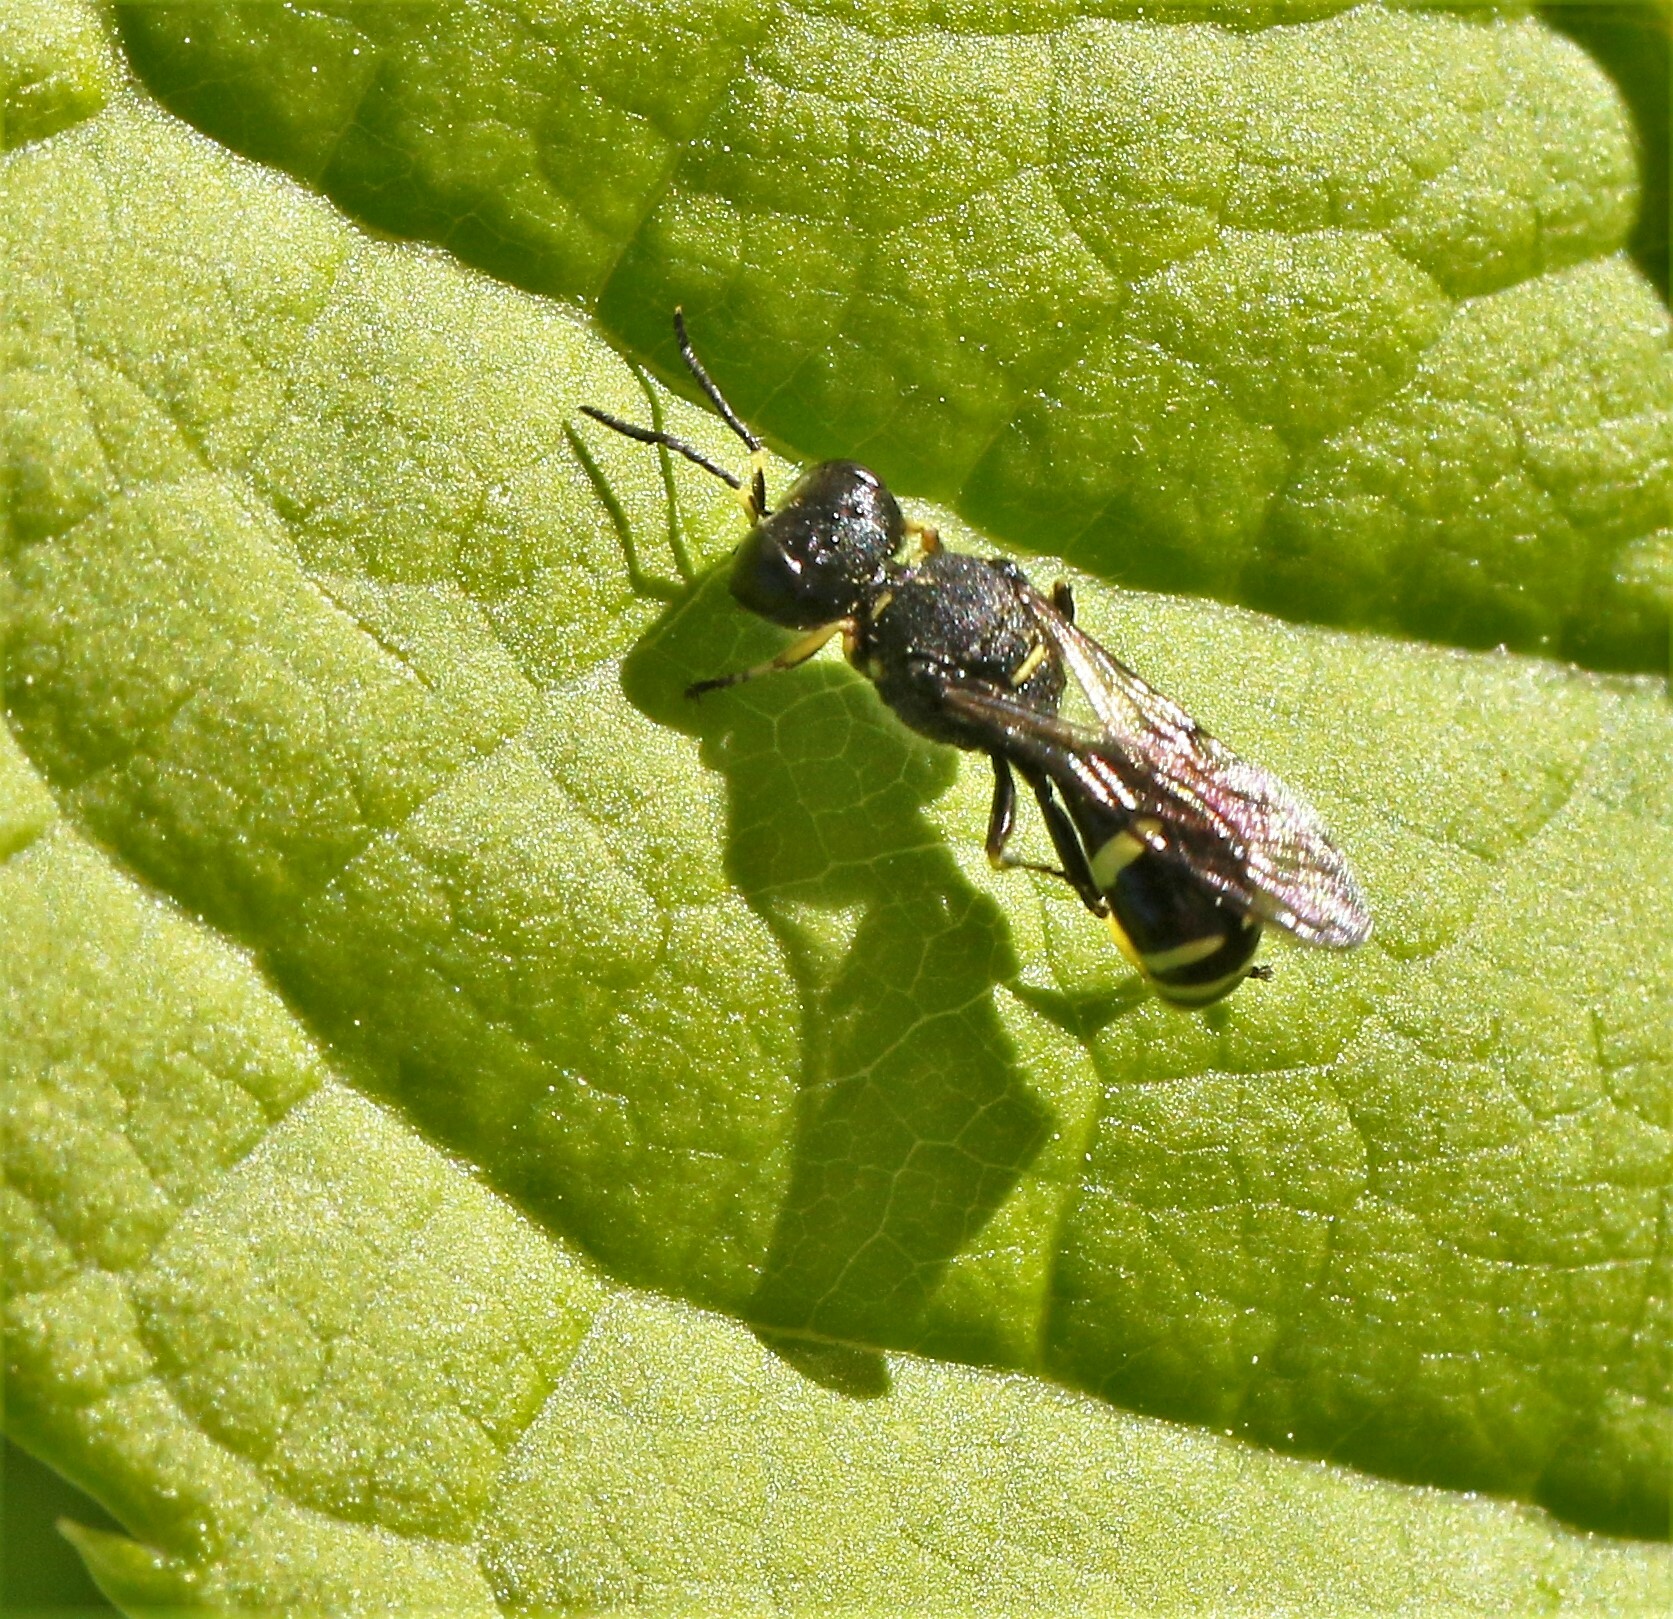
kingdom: Animalia
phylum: Arthropoda
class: Insecta
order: Hymenoptera
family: Crabronidae
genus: Ectemnius
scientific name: Ectemnius continuus
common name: Common ectemnius
